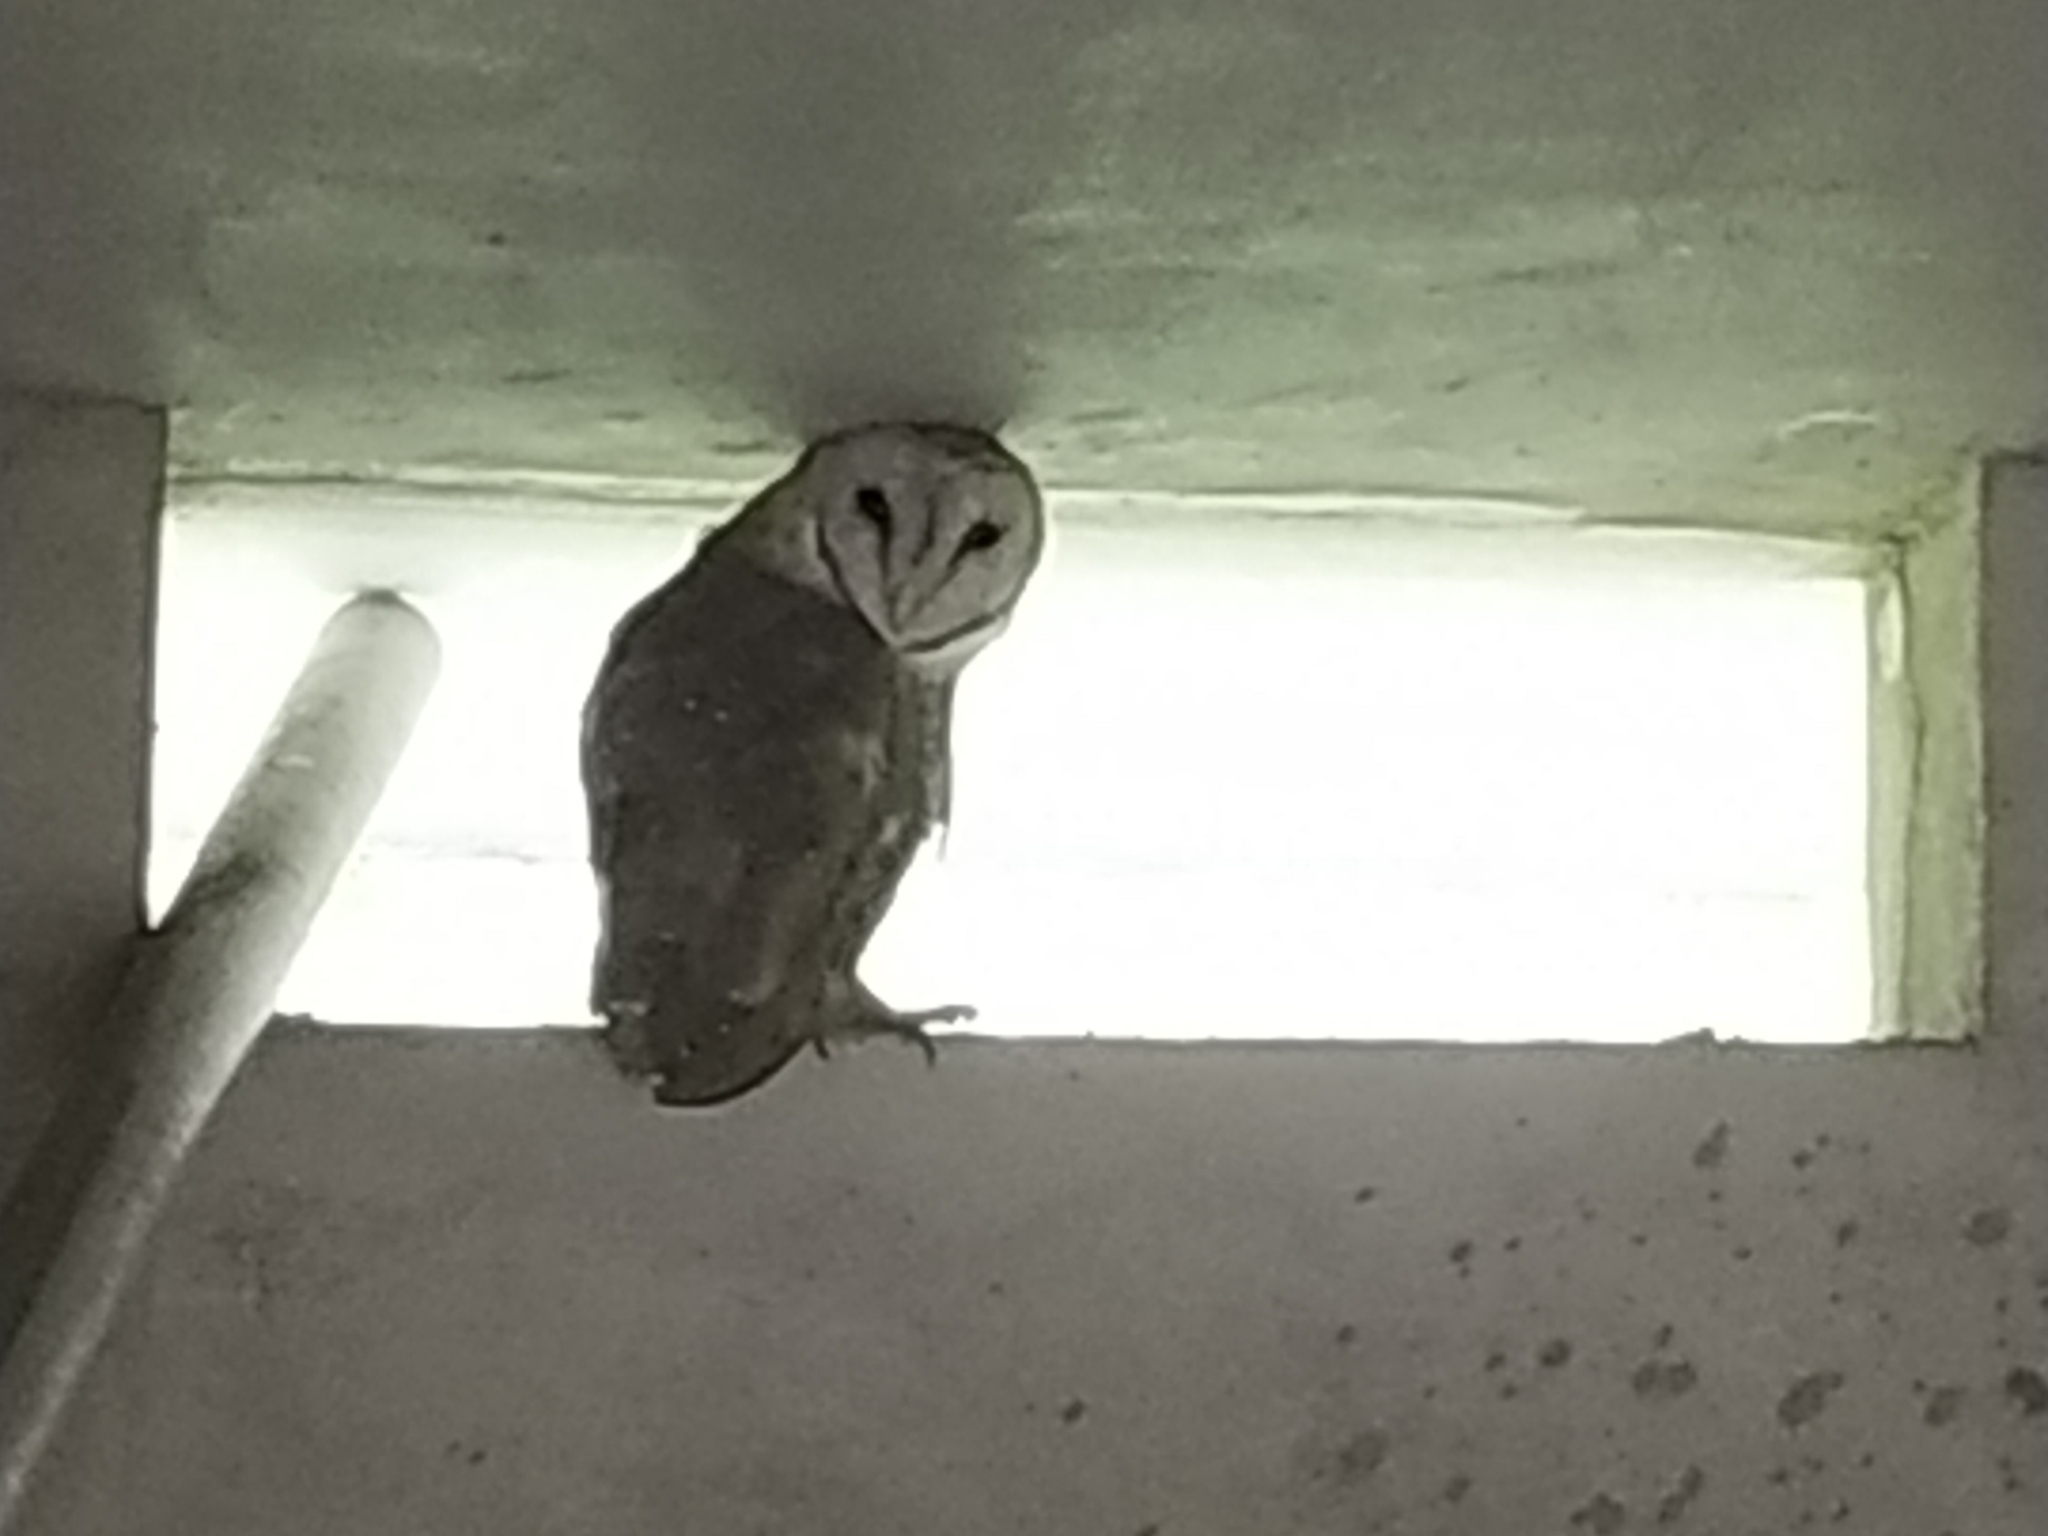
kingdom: Animalia
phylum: Chordata
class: Aves
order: Strigiformes
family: Tytonidae
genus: Tyto
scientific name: Tyto alba
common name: Barn owl
